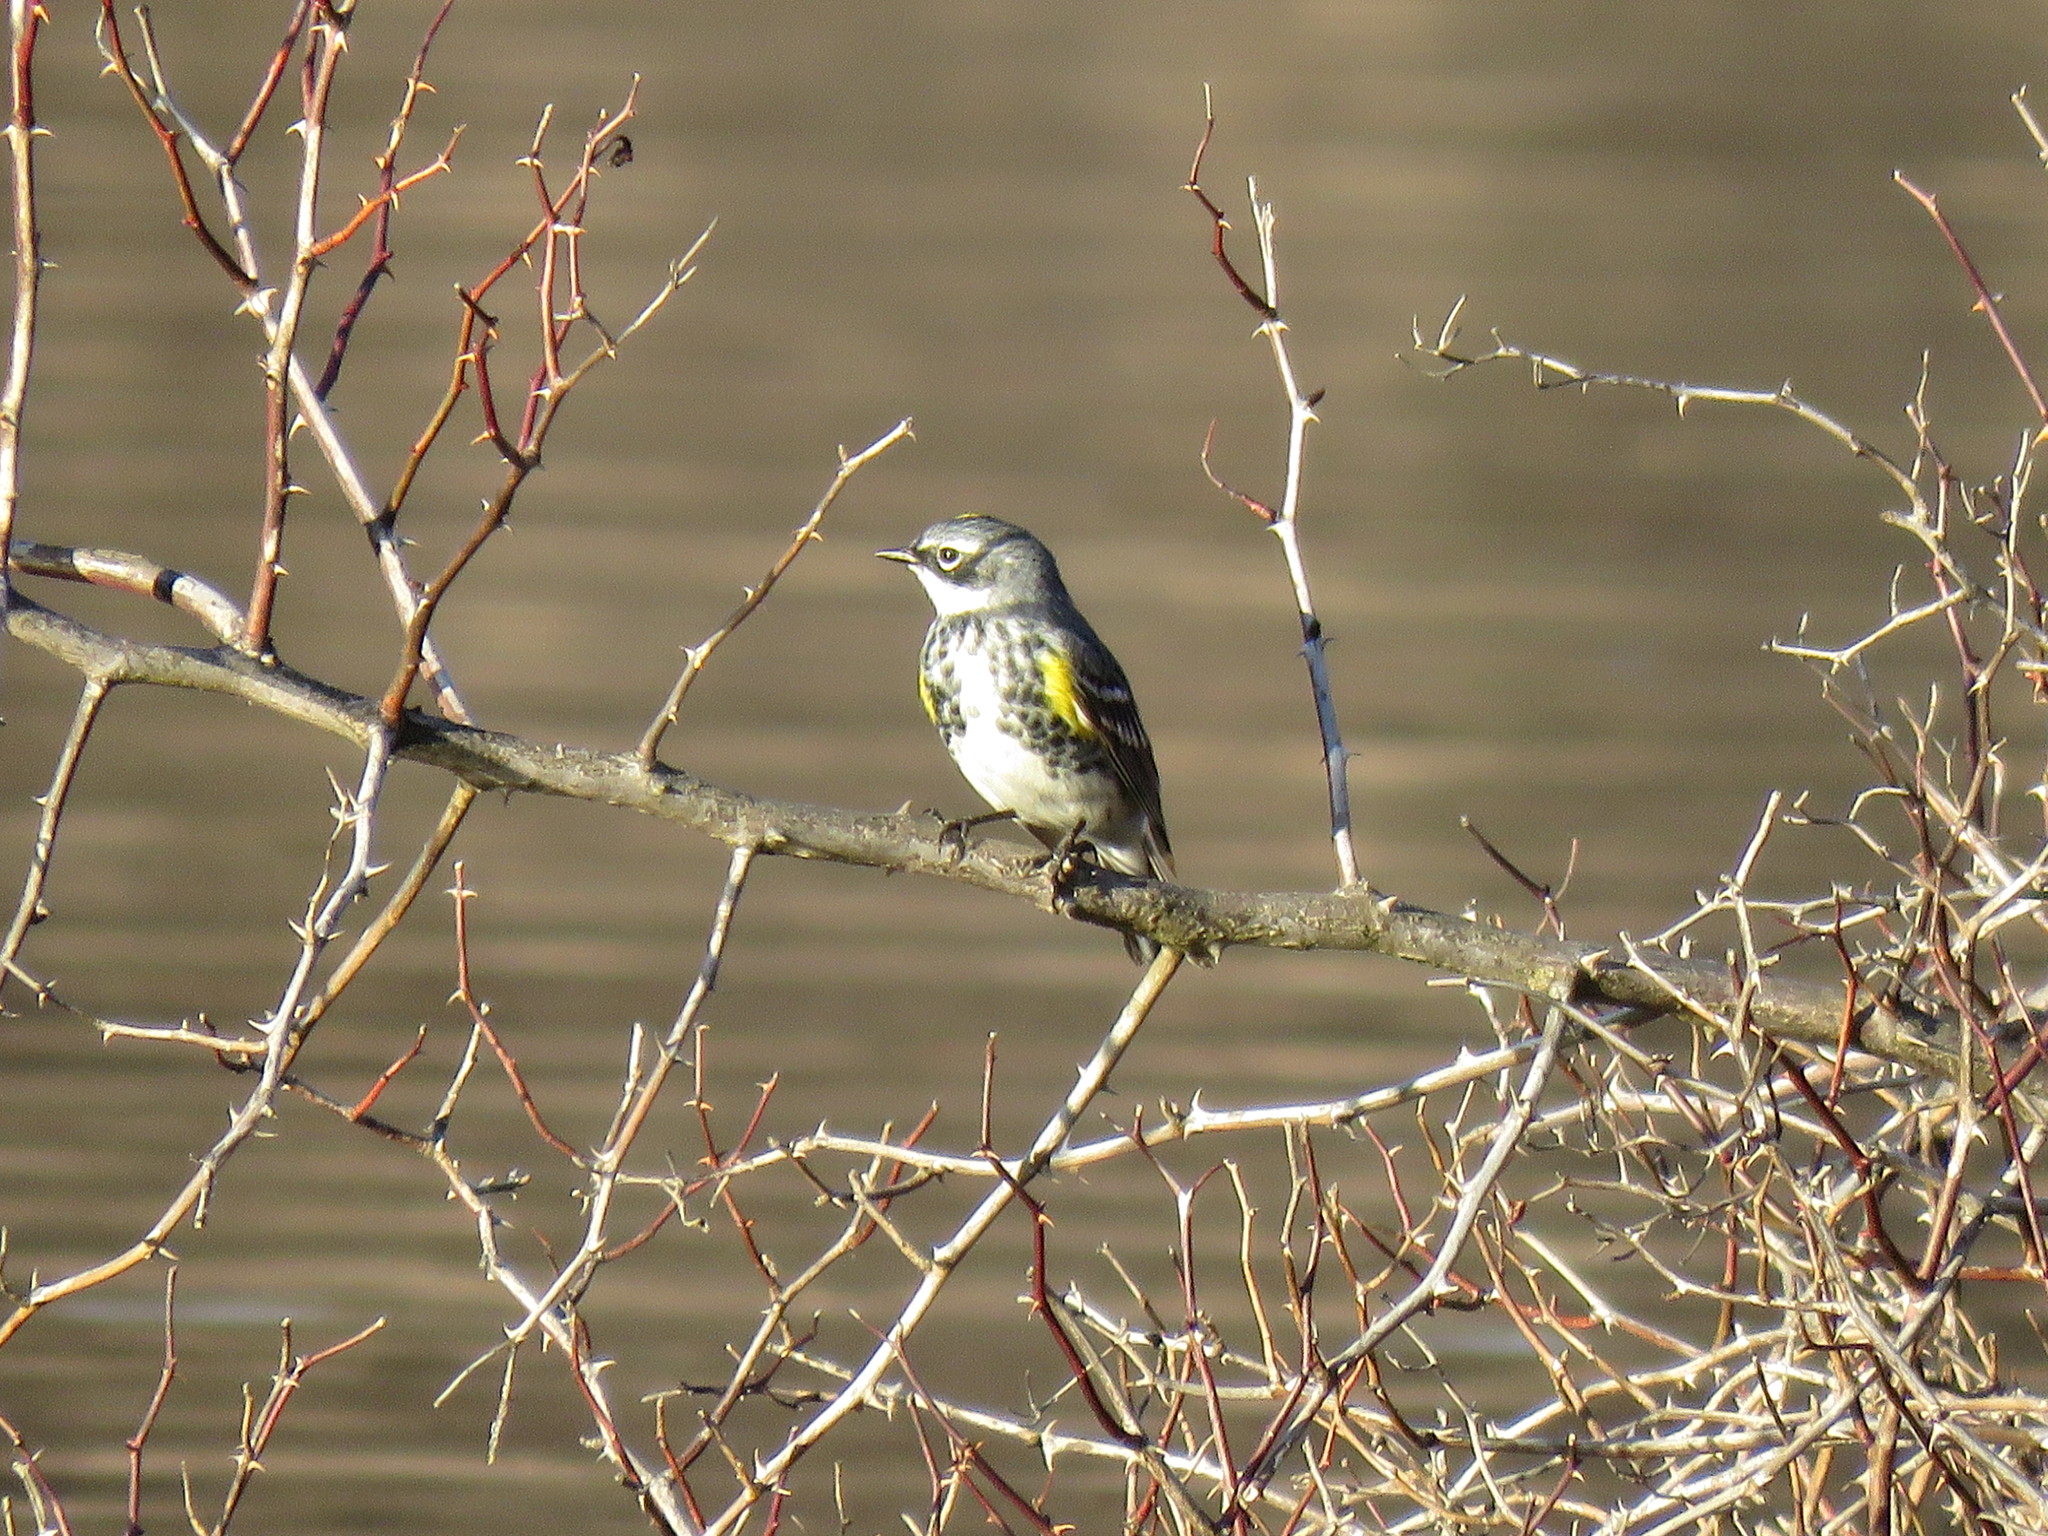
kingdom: Animalia
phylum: Chordata
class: Aves
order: Passeriformes
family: Parulidae
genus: Setophaga
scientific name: Setophaga coronata
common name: Myrtle warbler
